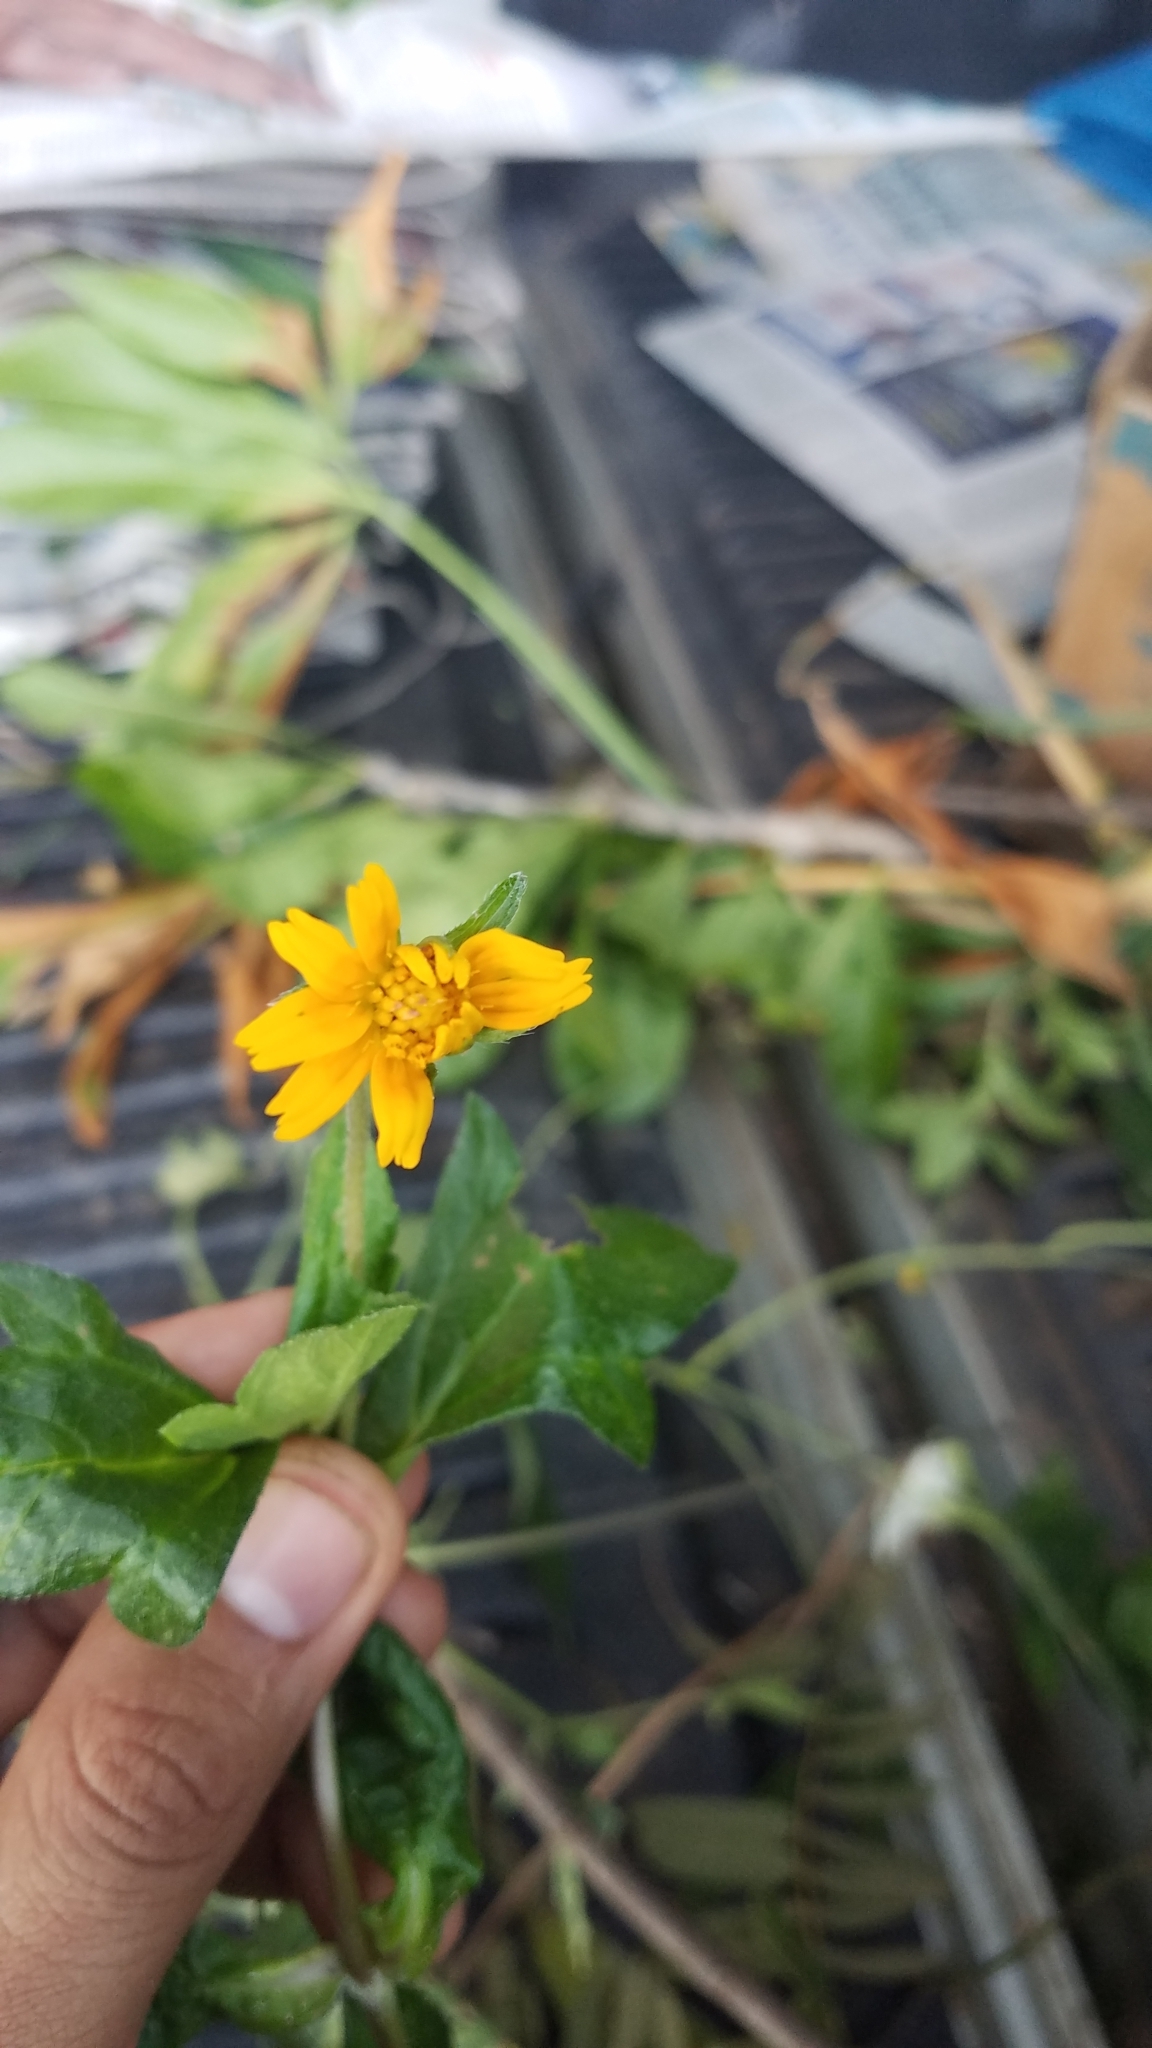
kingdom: Plantae
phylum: Tracheophyta
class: Magnoliopsida
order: Asterales
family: Asteraceae
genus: Sphagneticola
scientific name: Sphagneticola trilobata
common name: Bay biscayne creeping-oxeye
